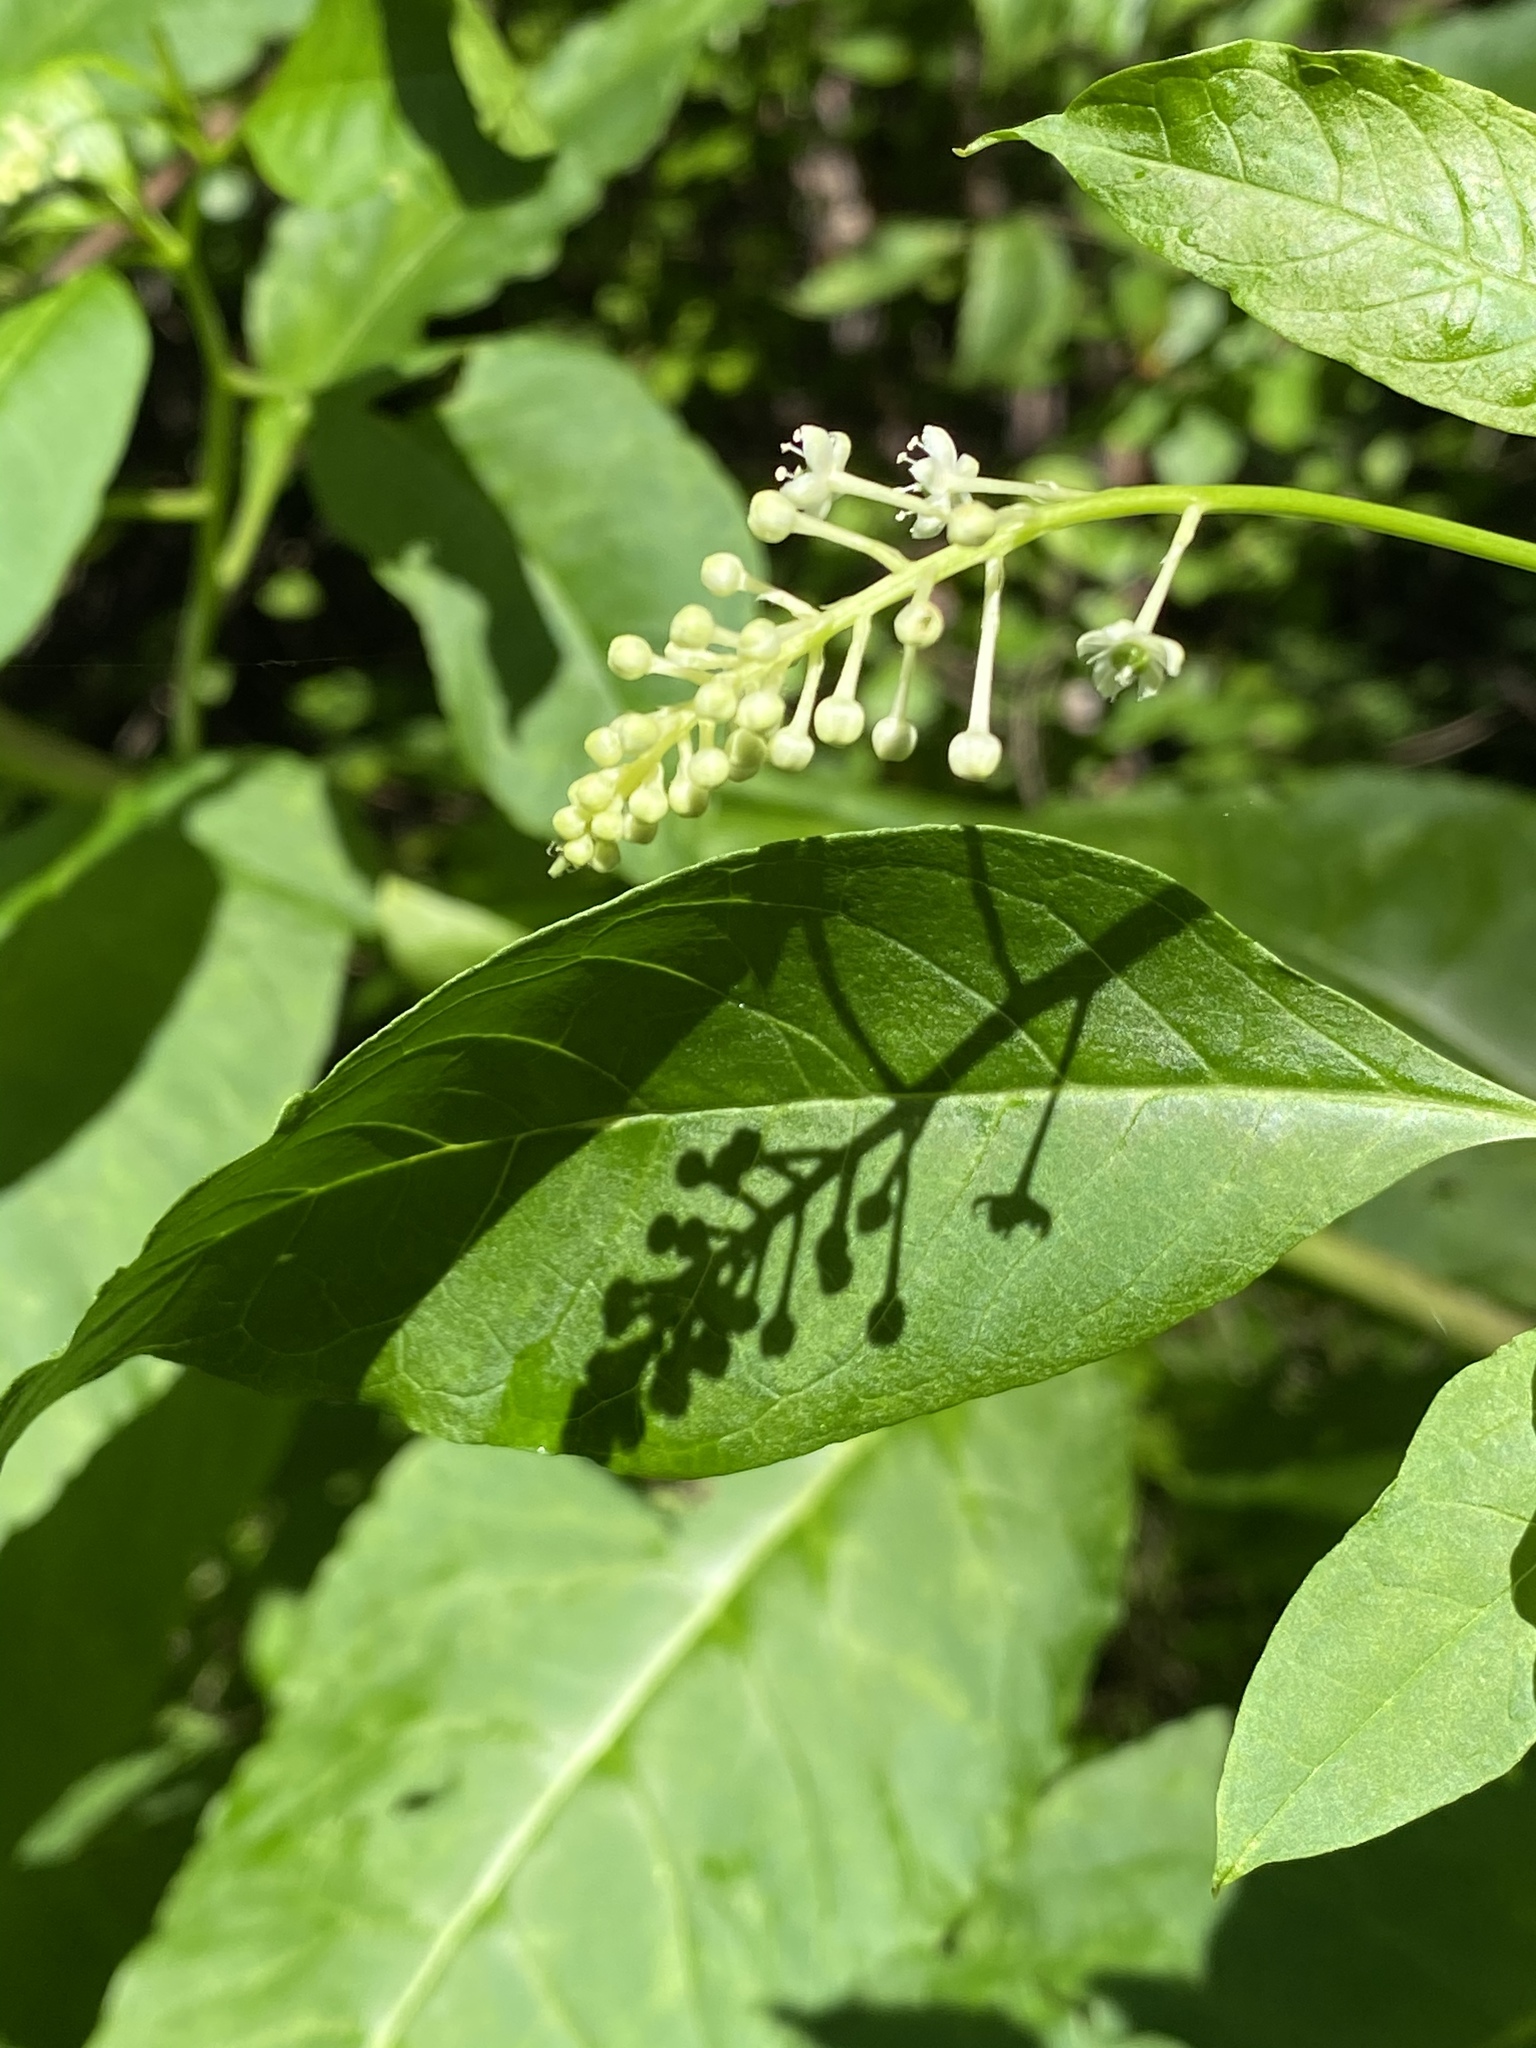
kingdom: Plantae
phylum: Tracheophyta
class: Magnoliopsida
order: Caryophyllales
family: Phytolaccaceae
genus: Phytolacca
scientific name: Phytolacca americana
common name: American pokeweed
